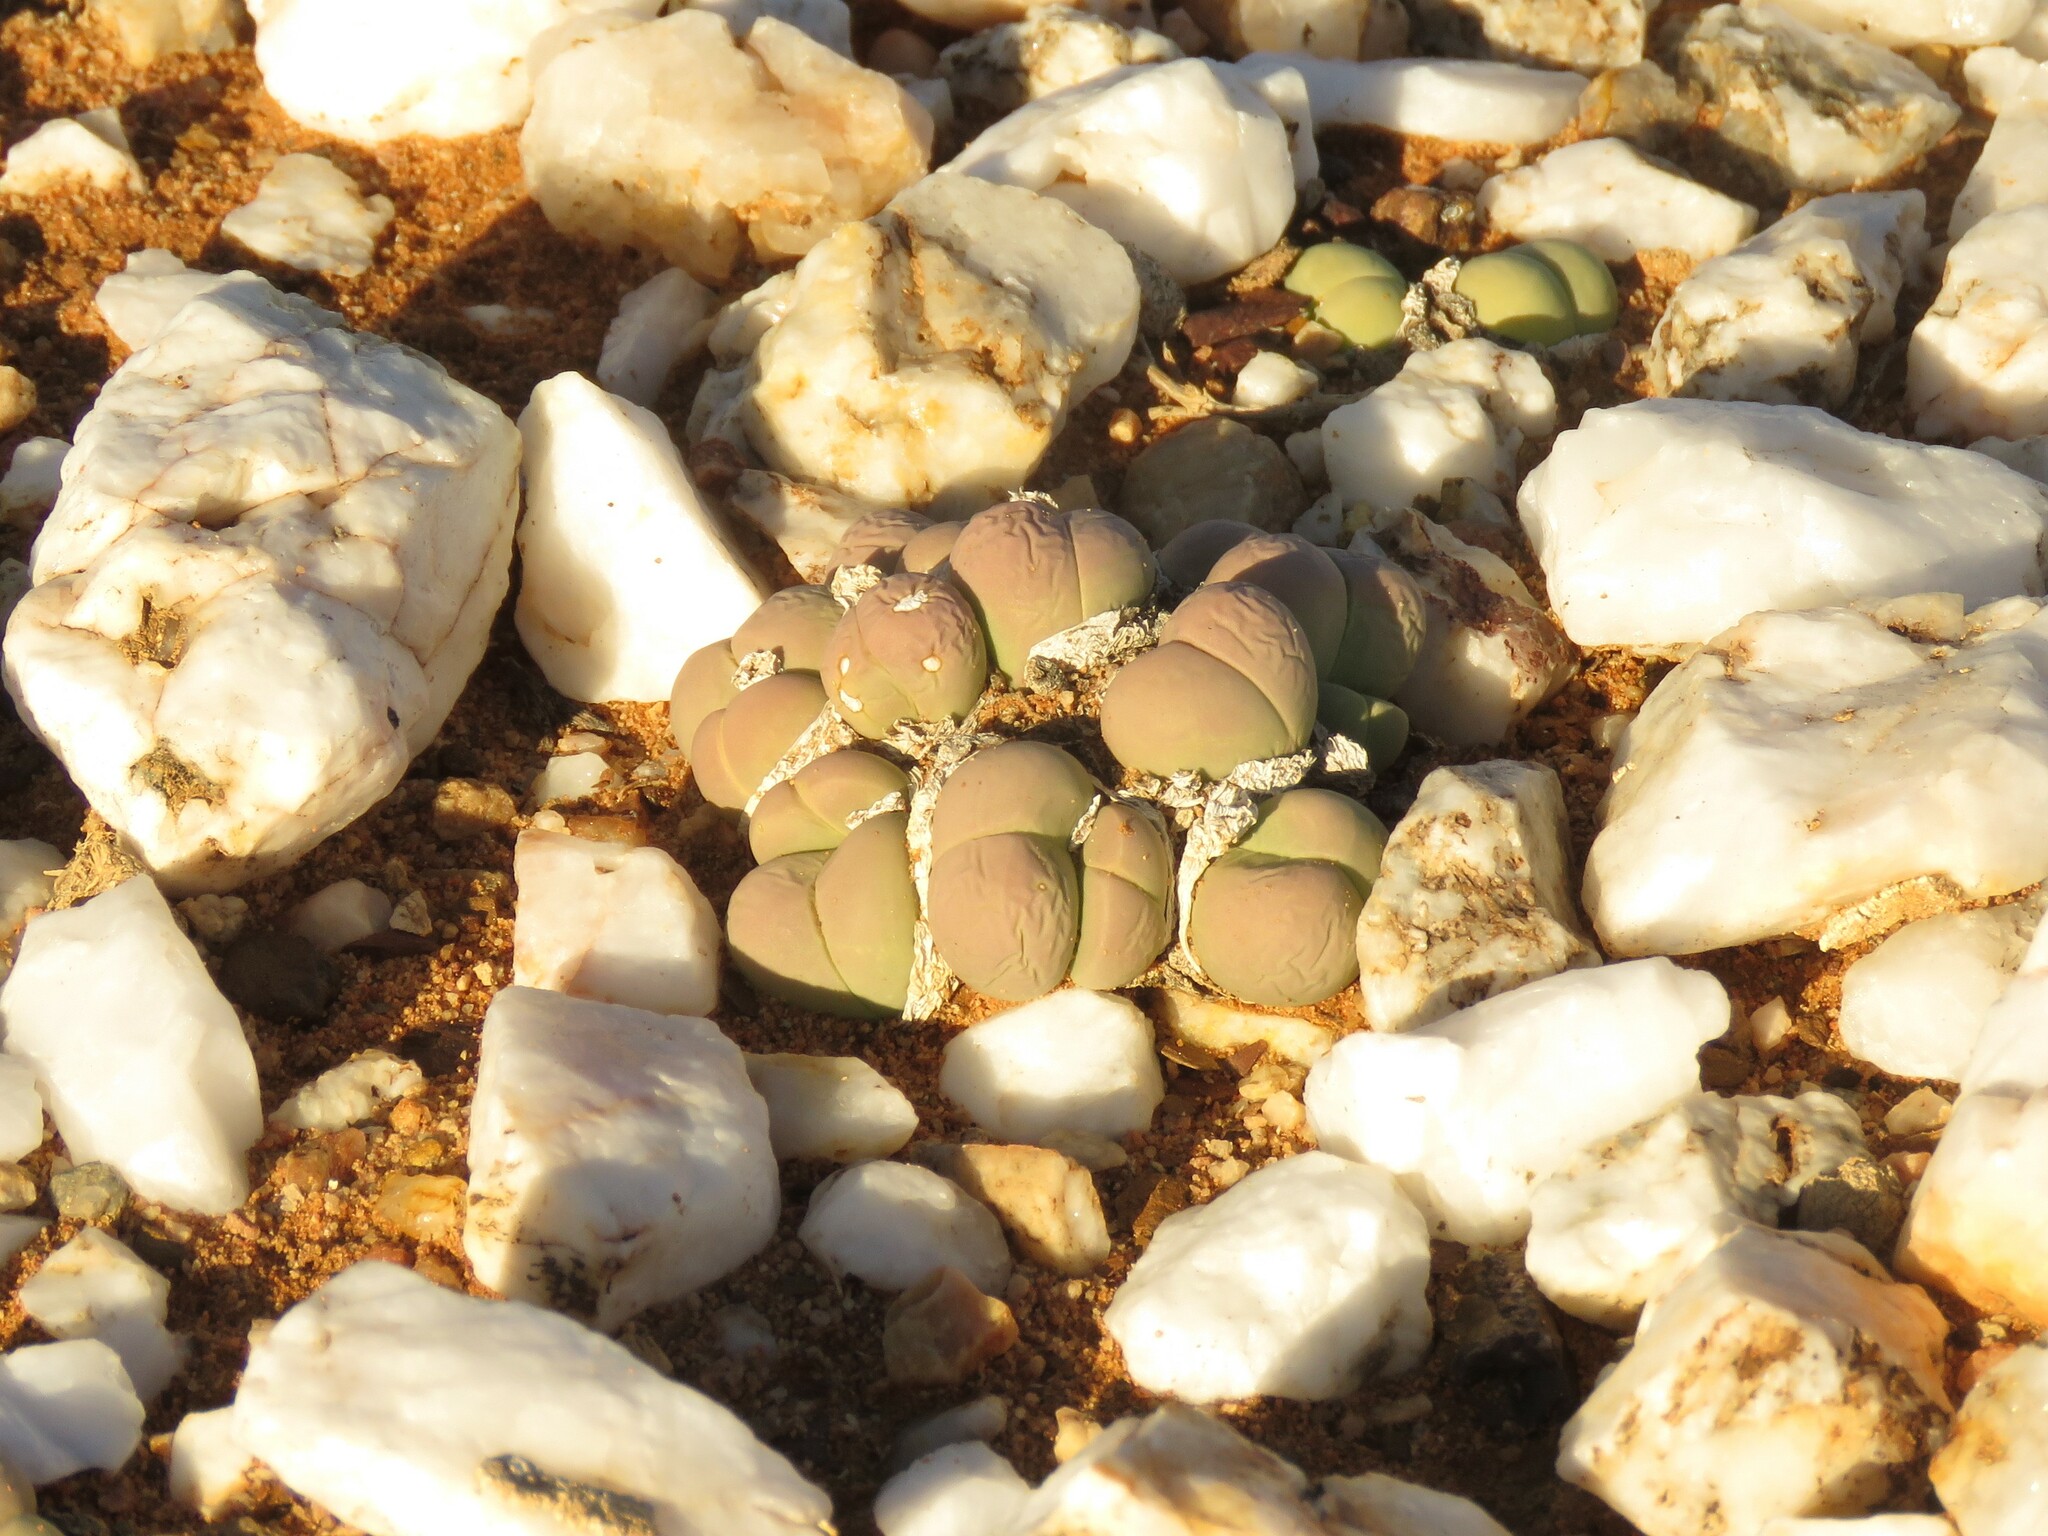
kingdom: Plantae
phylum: Tracheophyta
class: Magnoliopsida
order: Caryophyllales
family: Aizoaceae
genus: Gibbaeum
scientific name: Gibbaeum heathii
